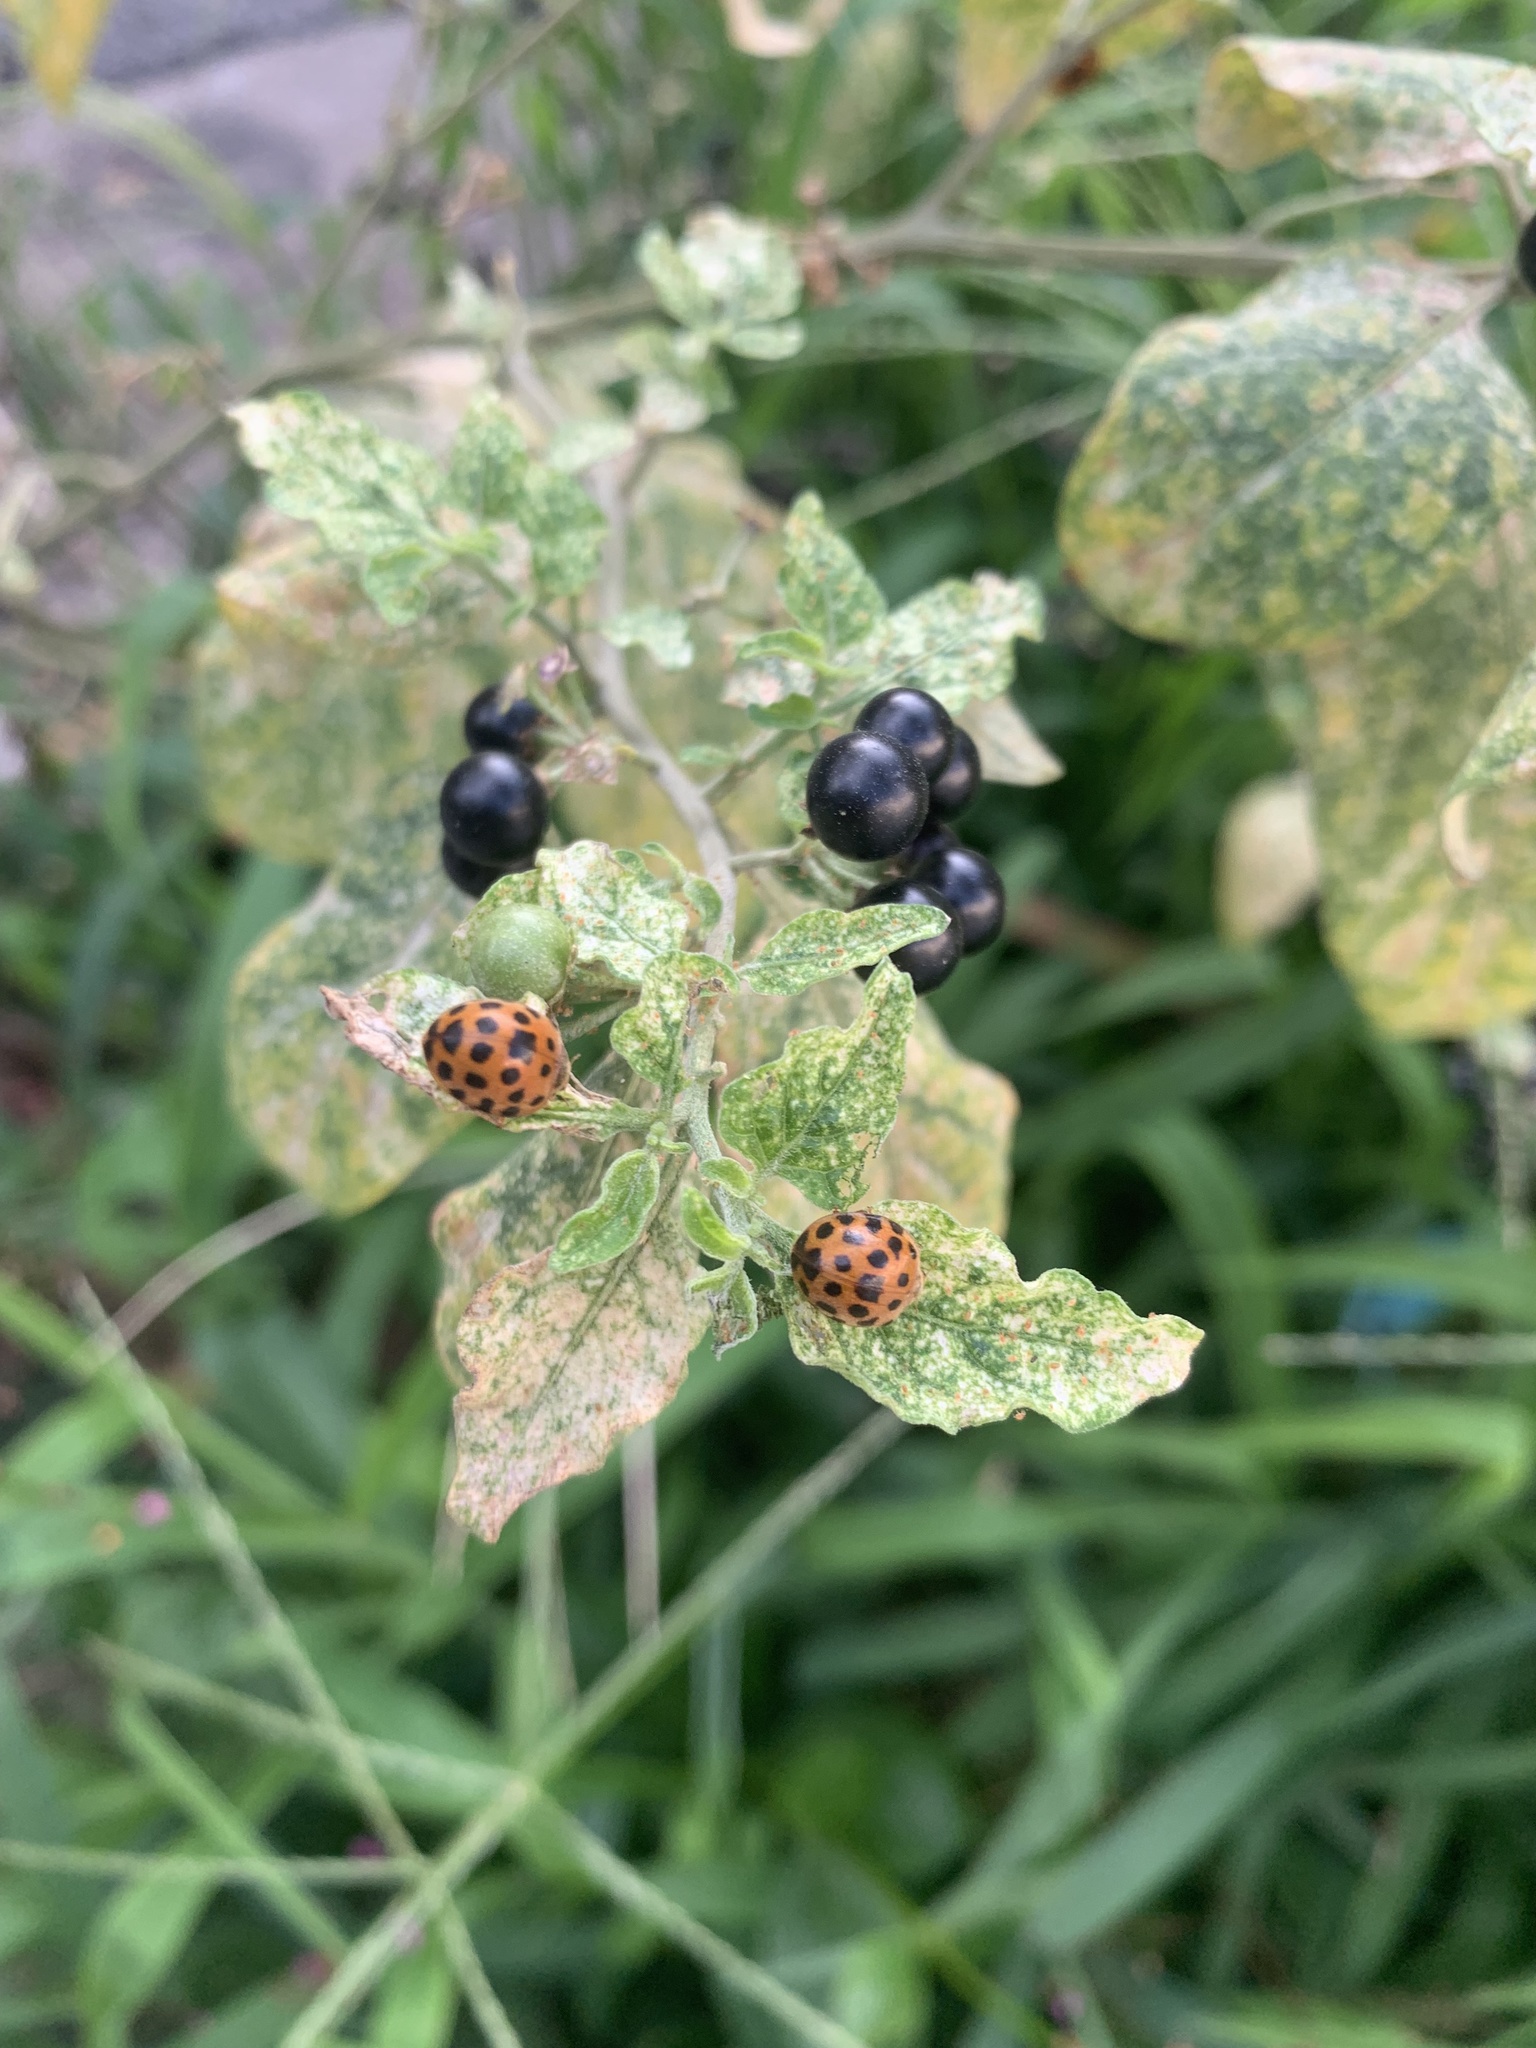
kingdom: Animalia
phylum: Arthropoda
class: Insecta
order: Coleoptera
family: Coccinellidae
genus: Henosepilachna
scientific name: Henosepilachna vigintioctopunctata
